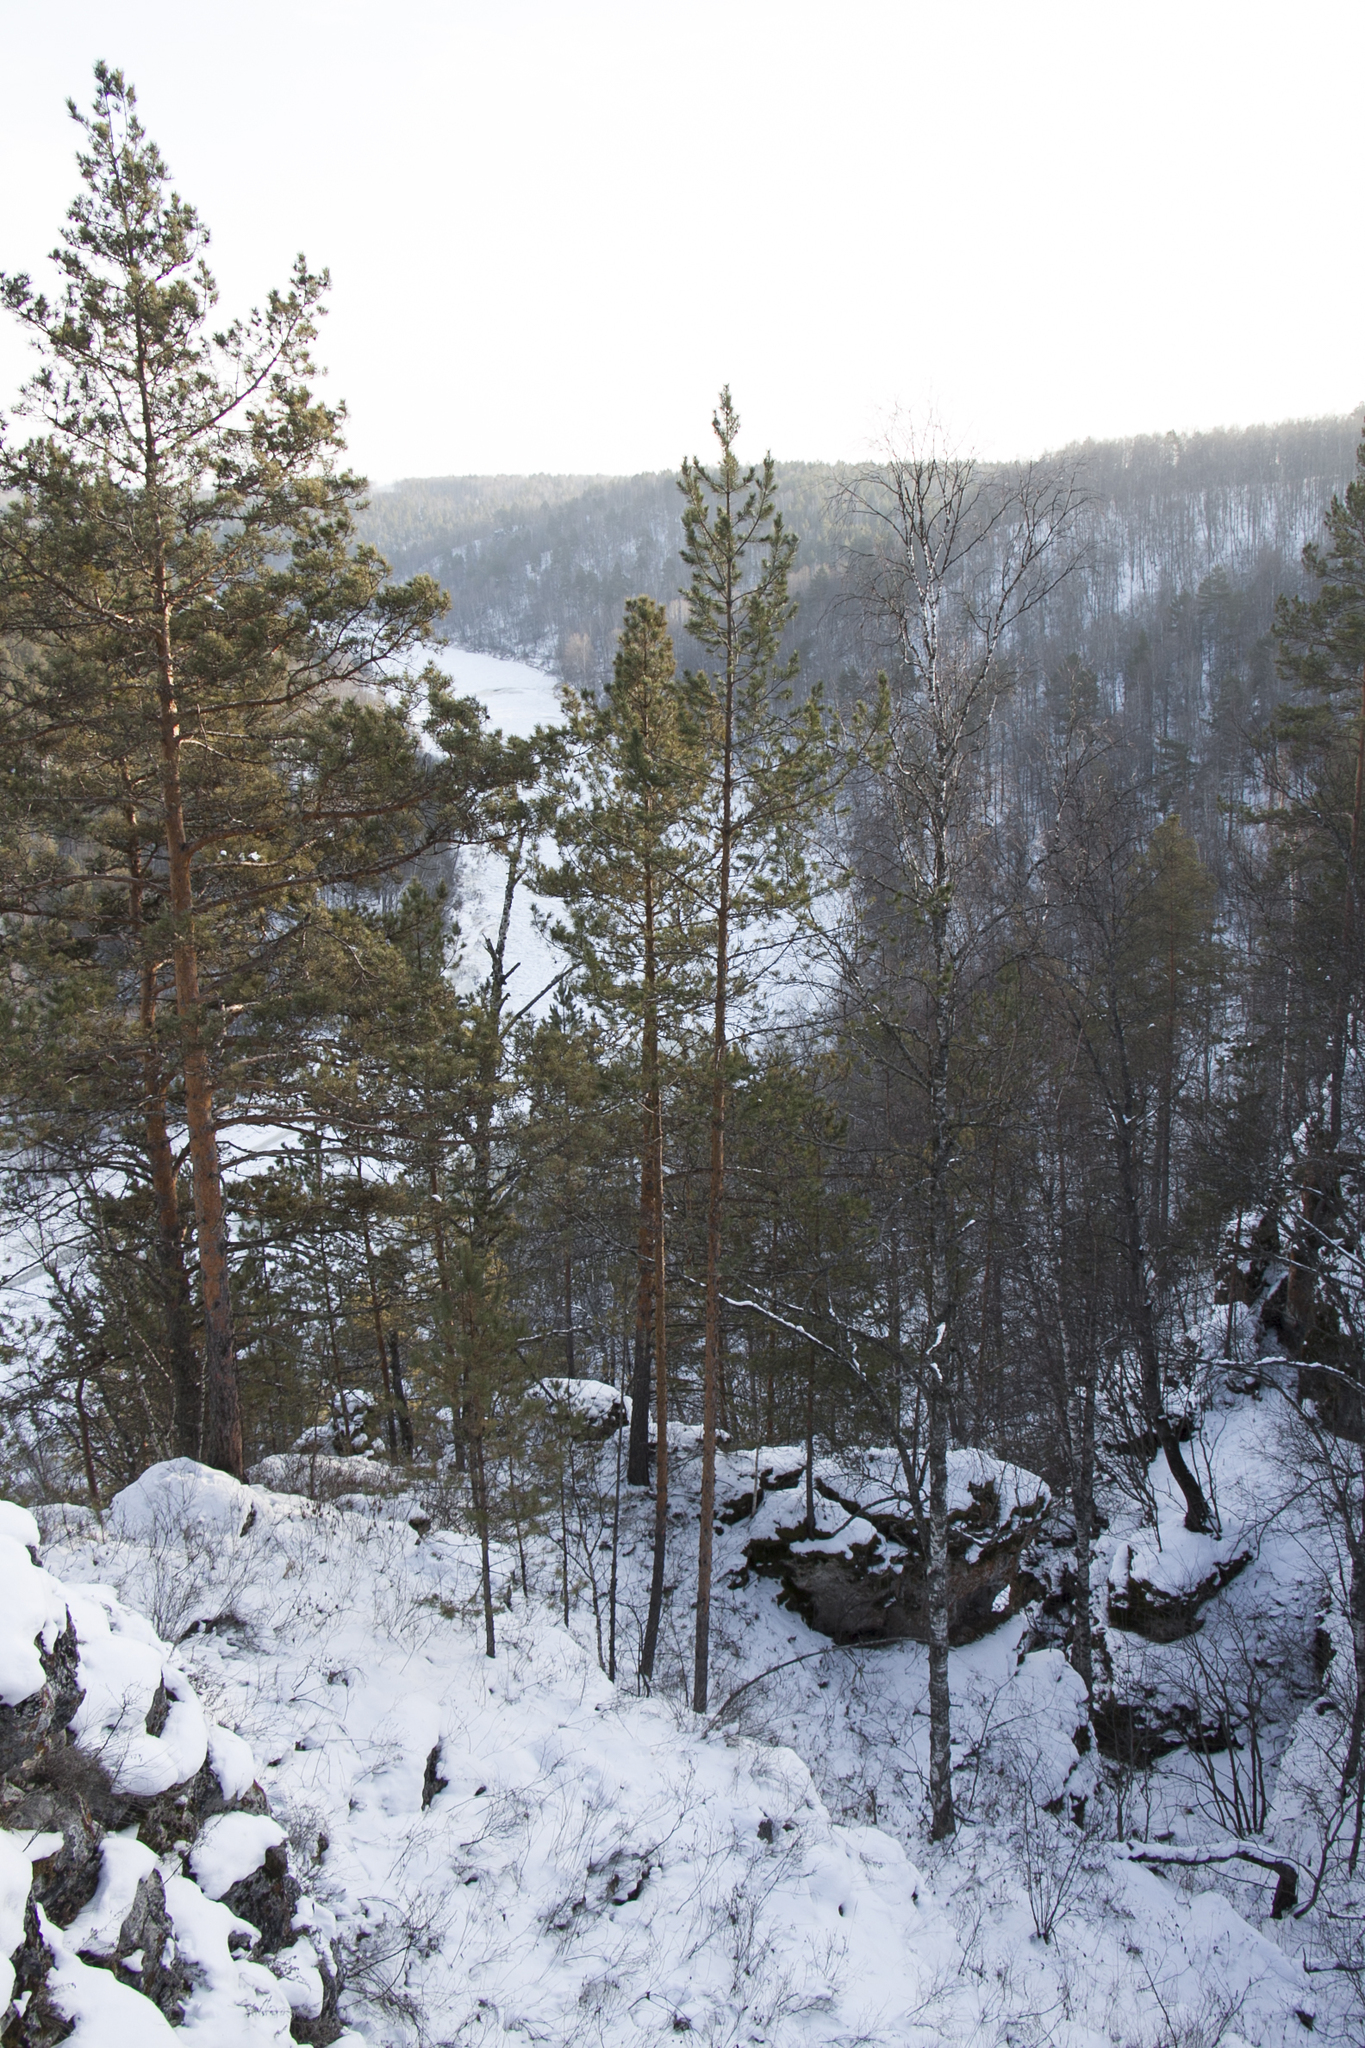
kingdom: Plantae
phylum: Tracheophyta
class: Pinopsida
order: Pinales
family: Pinaceae
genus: Pinus
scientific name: Pinus sylvestris
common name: Scots pine
